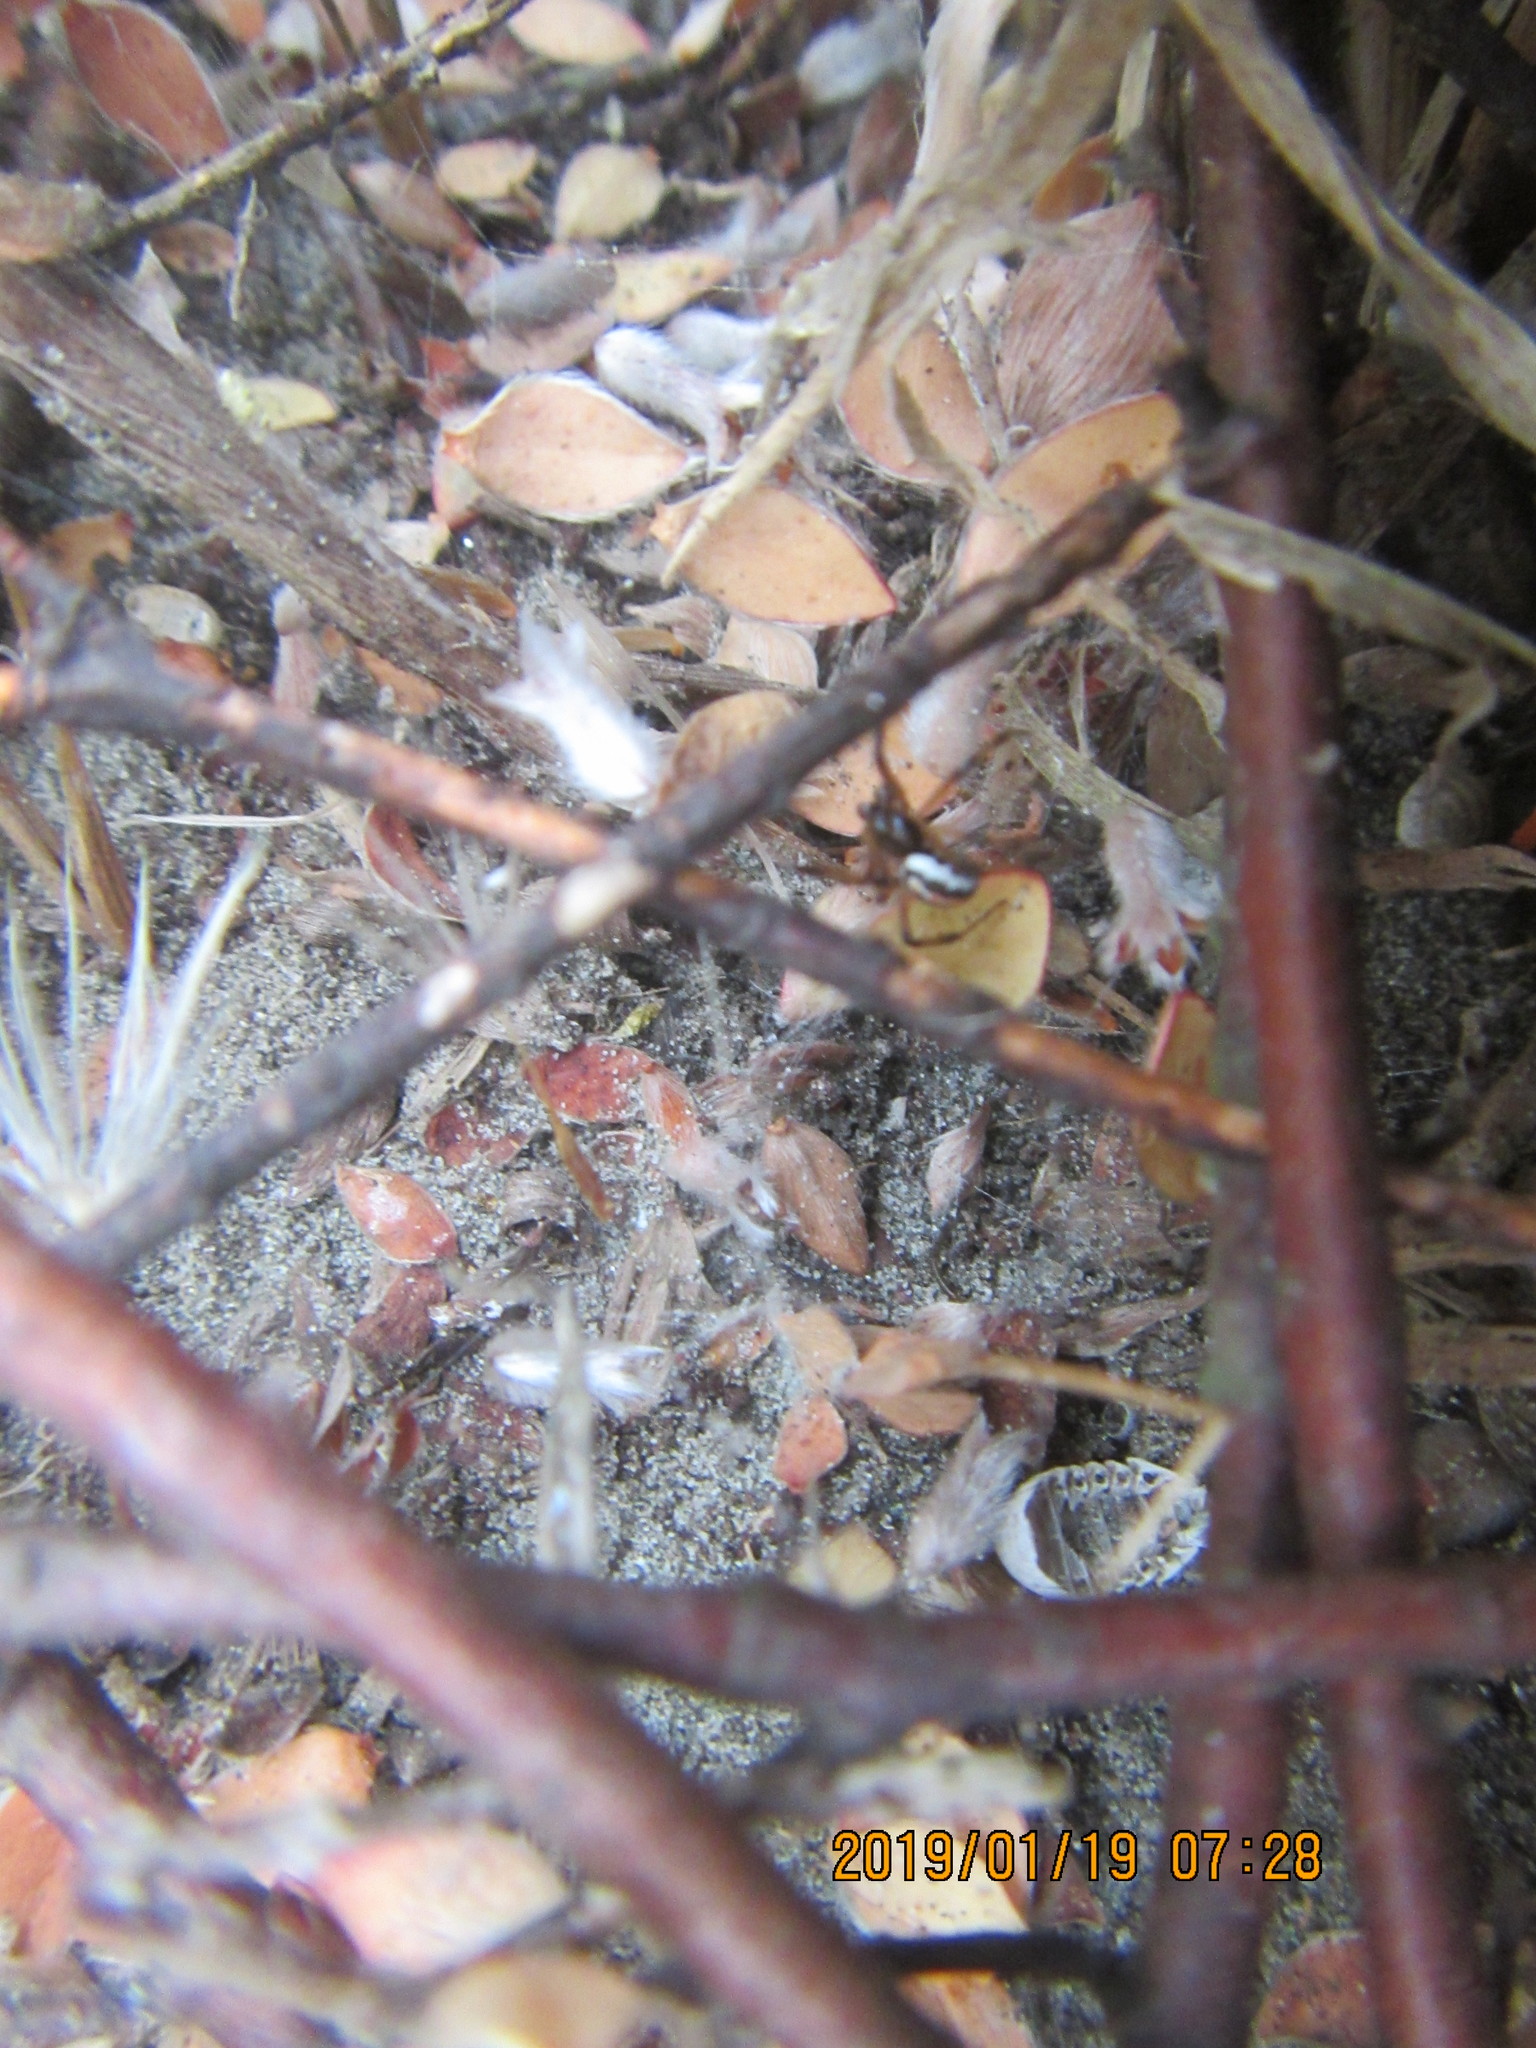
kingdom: Animalia
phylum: Arthropoda
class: Arachnida
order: Araneae
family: Theridiidae
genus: Latrodectus
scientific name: Latrodectus katipo
